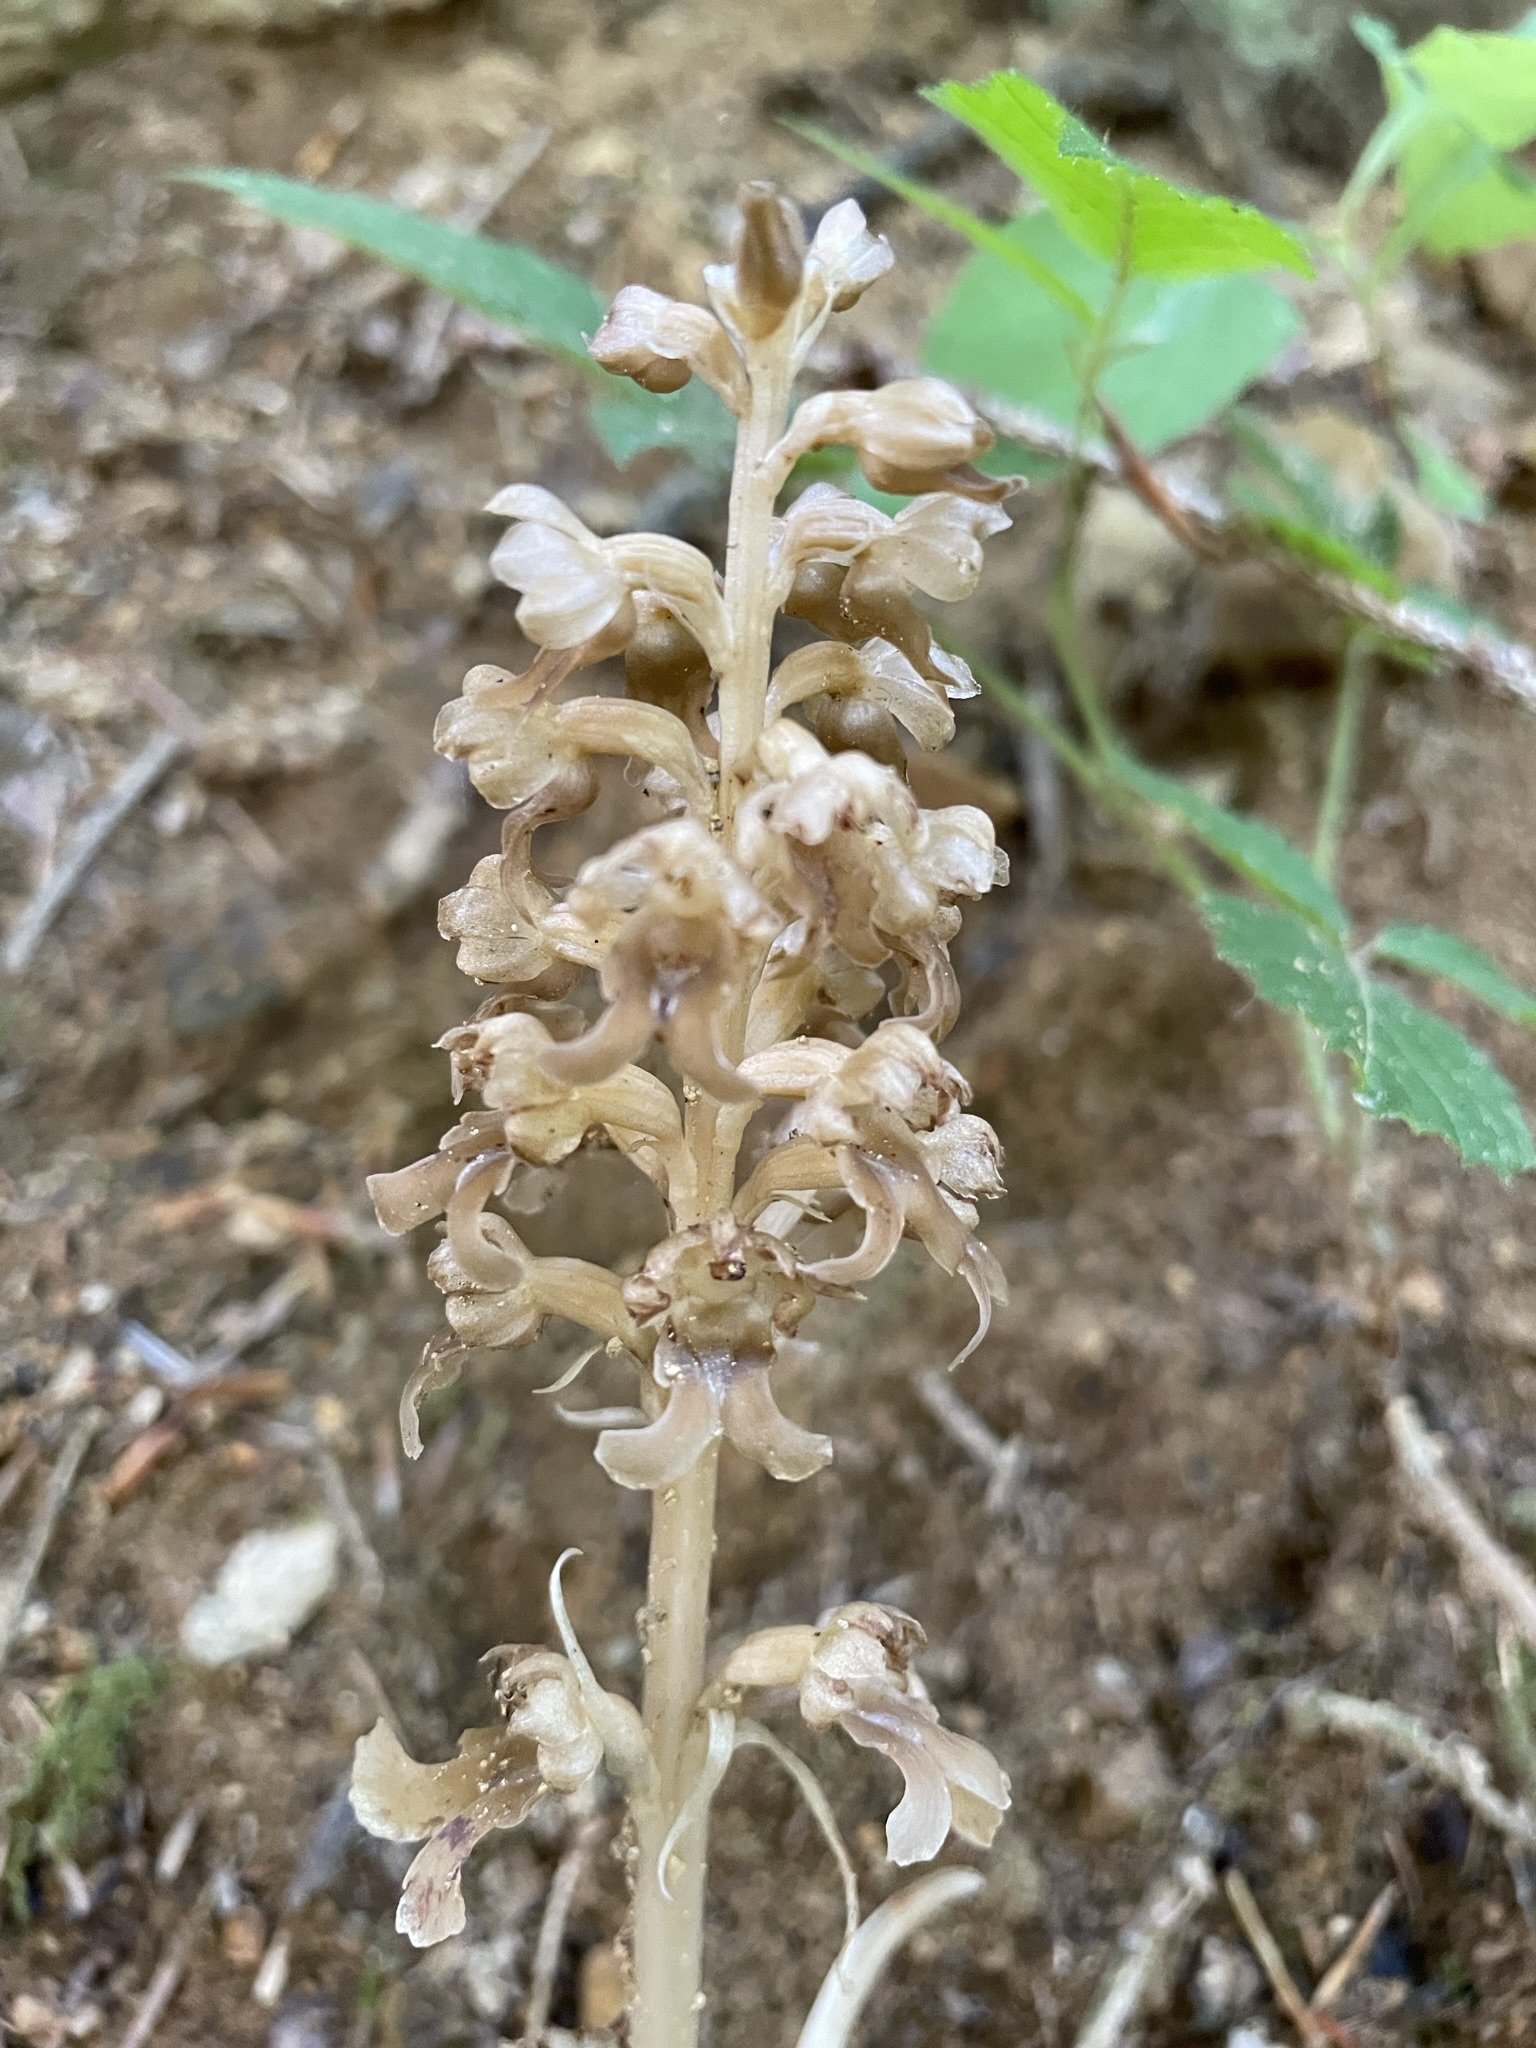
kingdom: Plantae
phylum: Tracheophyta
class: Liliopsida
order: Asparagales
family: Orchidaceae
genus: Neottia
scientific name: Neottia nidus-avis
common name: Bird's-nest orchid
